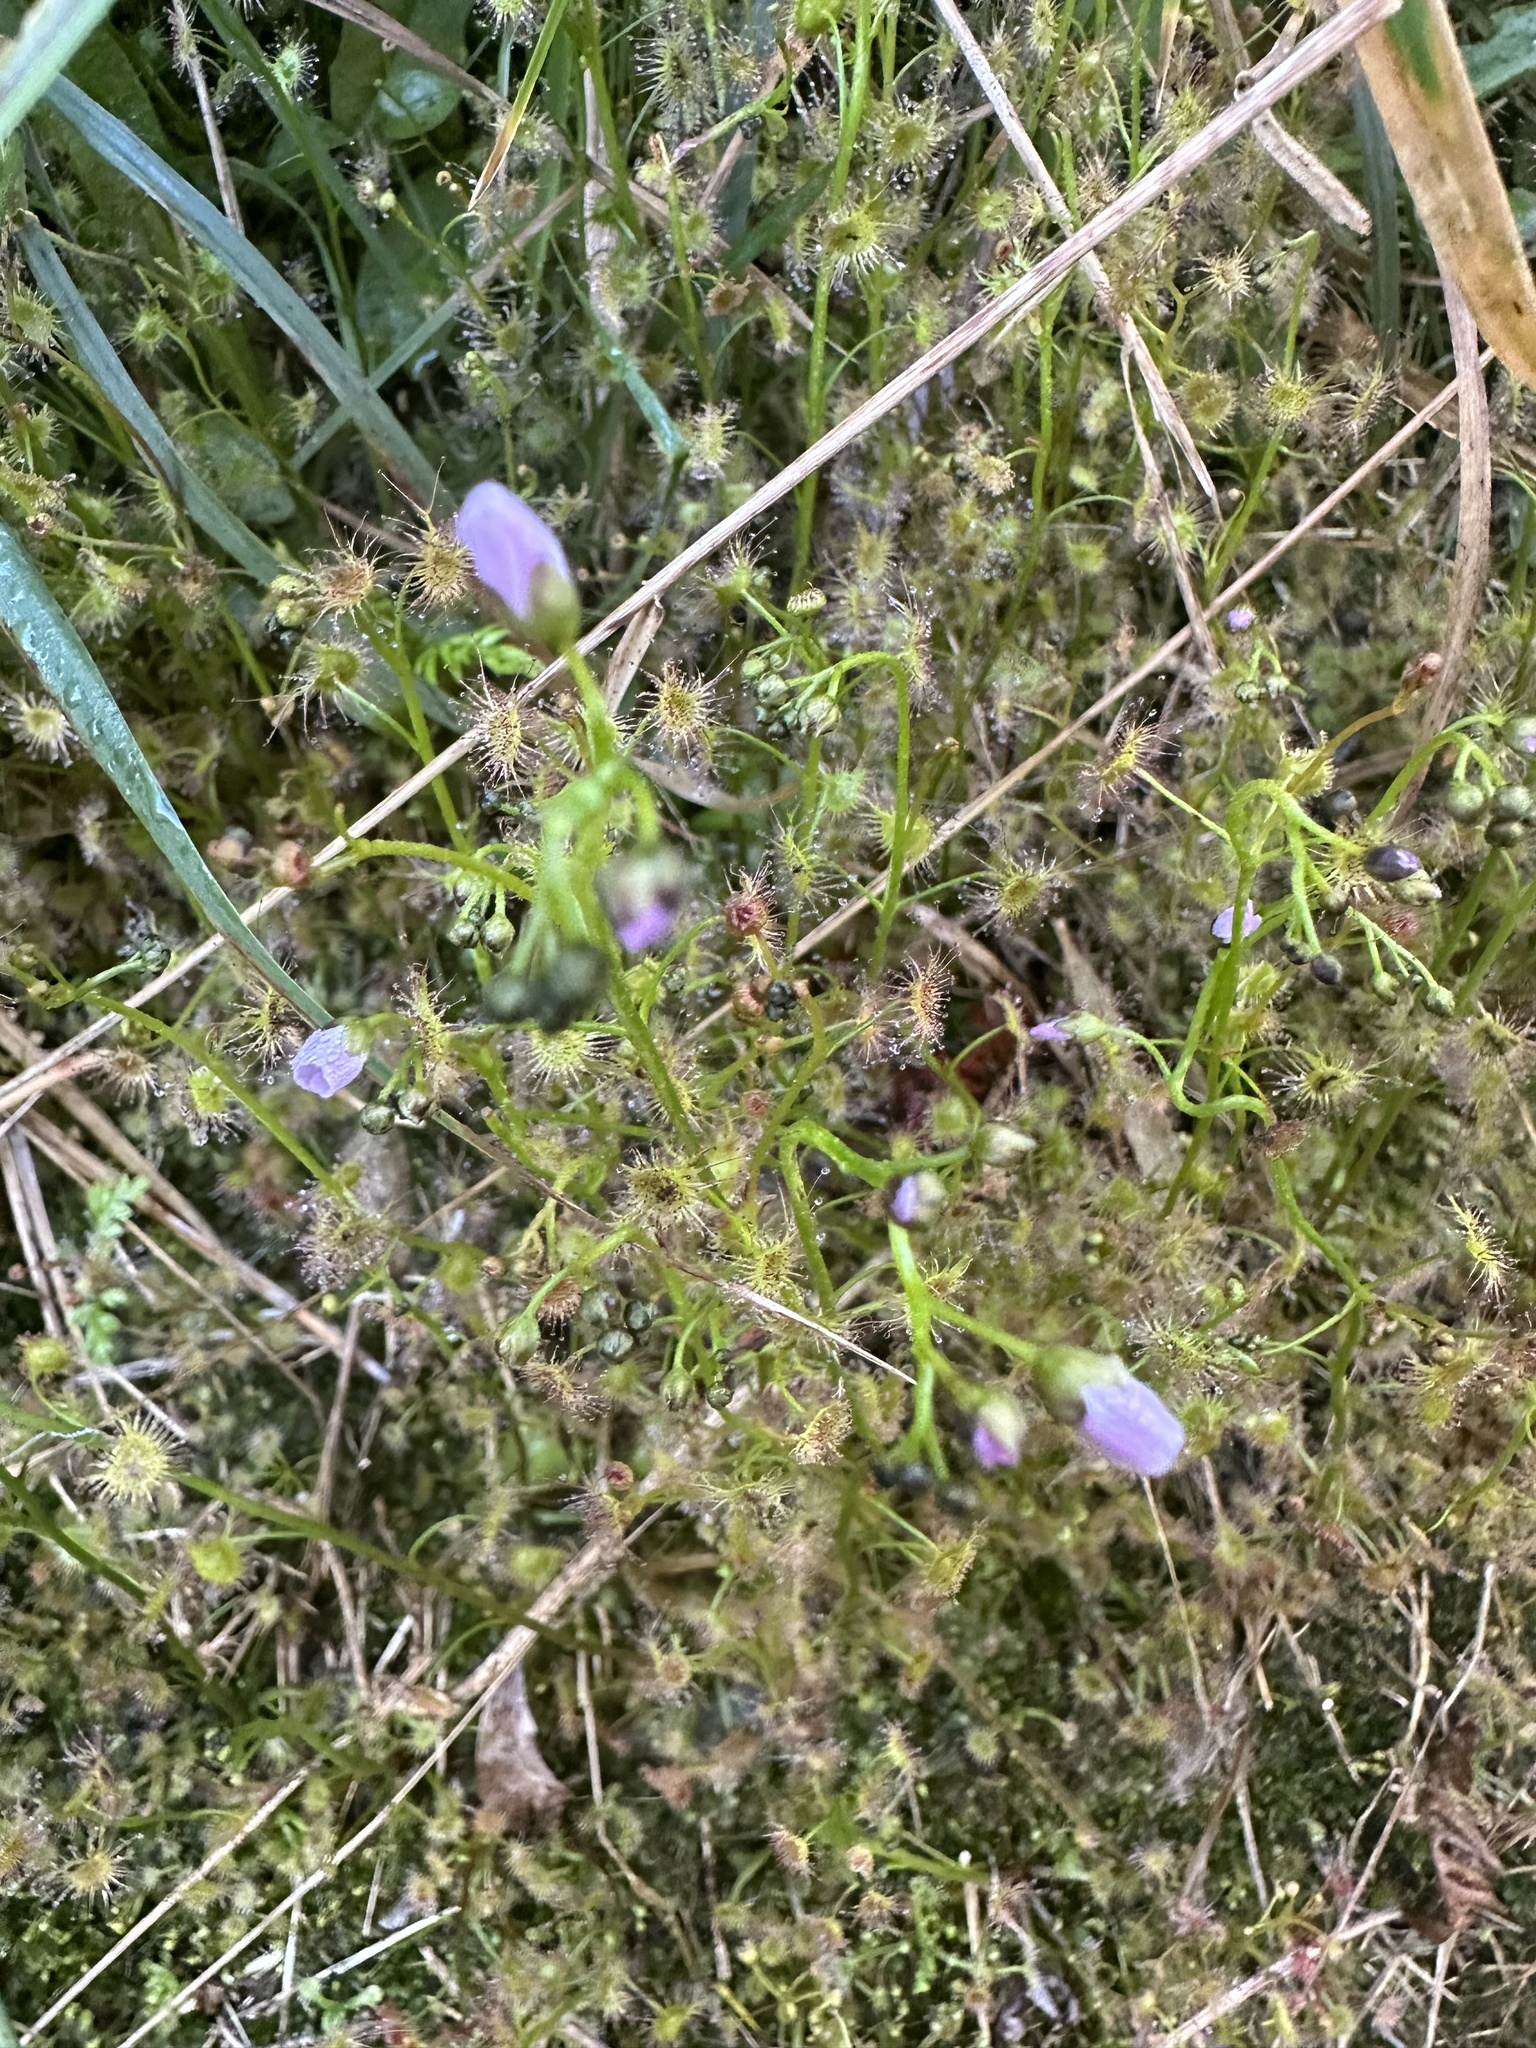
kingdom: Plantae
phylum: Tracheophyta
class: Magnoliopsida
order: Caryophyllales
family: Droseraceae
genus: Drosera
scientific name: Drosera peltata
